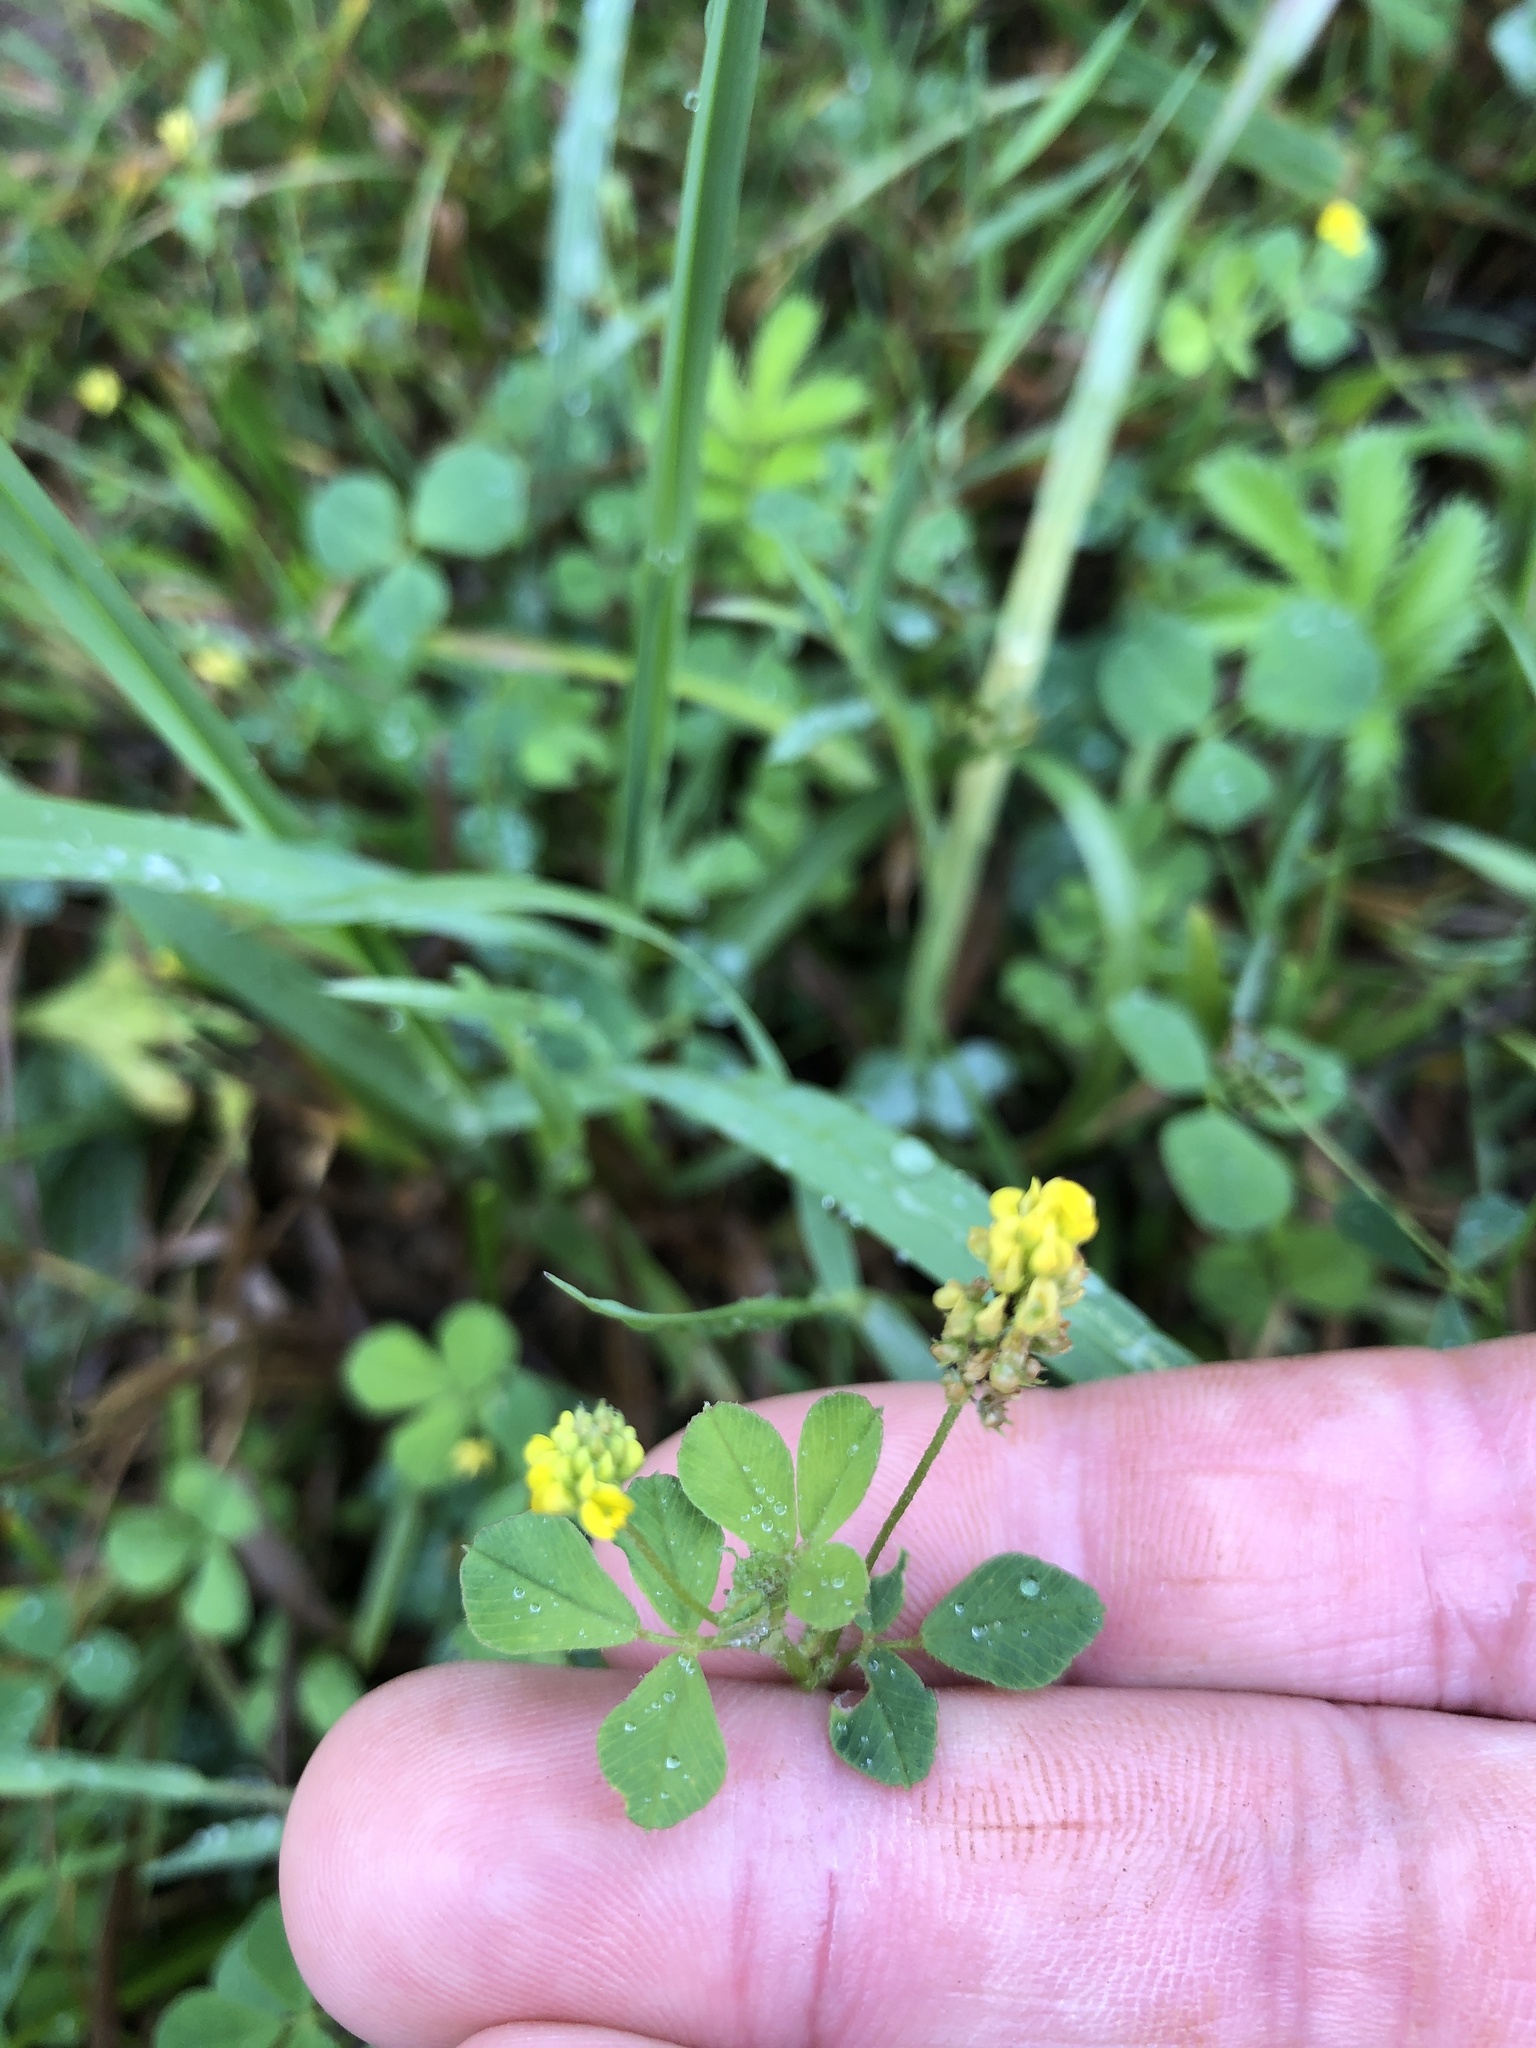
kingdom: Plantae
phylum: Tracheophyta
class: Magnoliopsida
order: Fabales
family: Fabaceae
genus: Medicago
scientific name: Medicago lupulina
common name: Black medick
